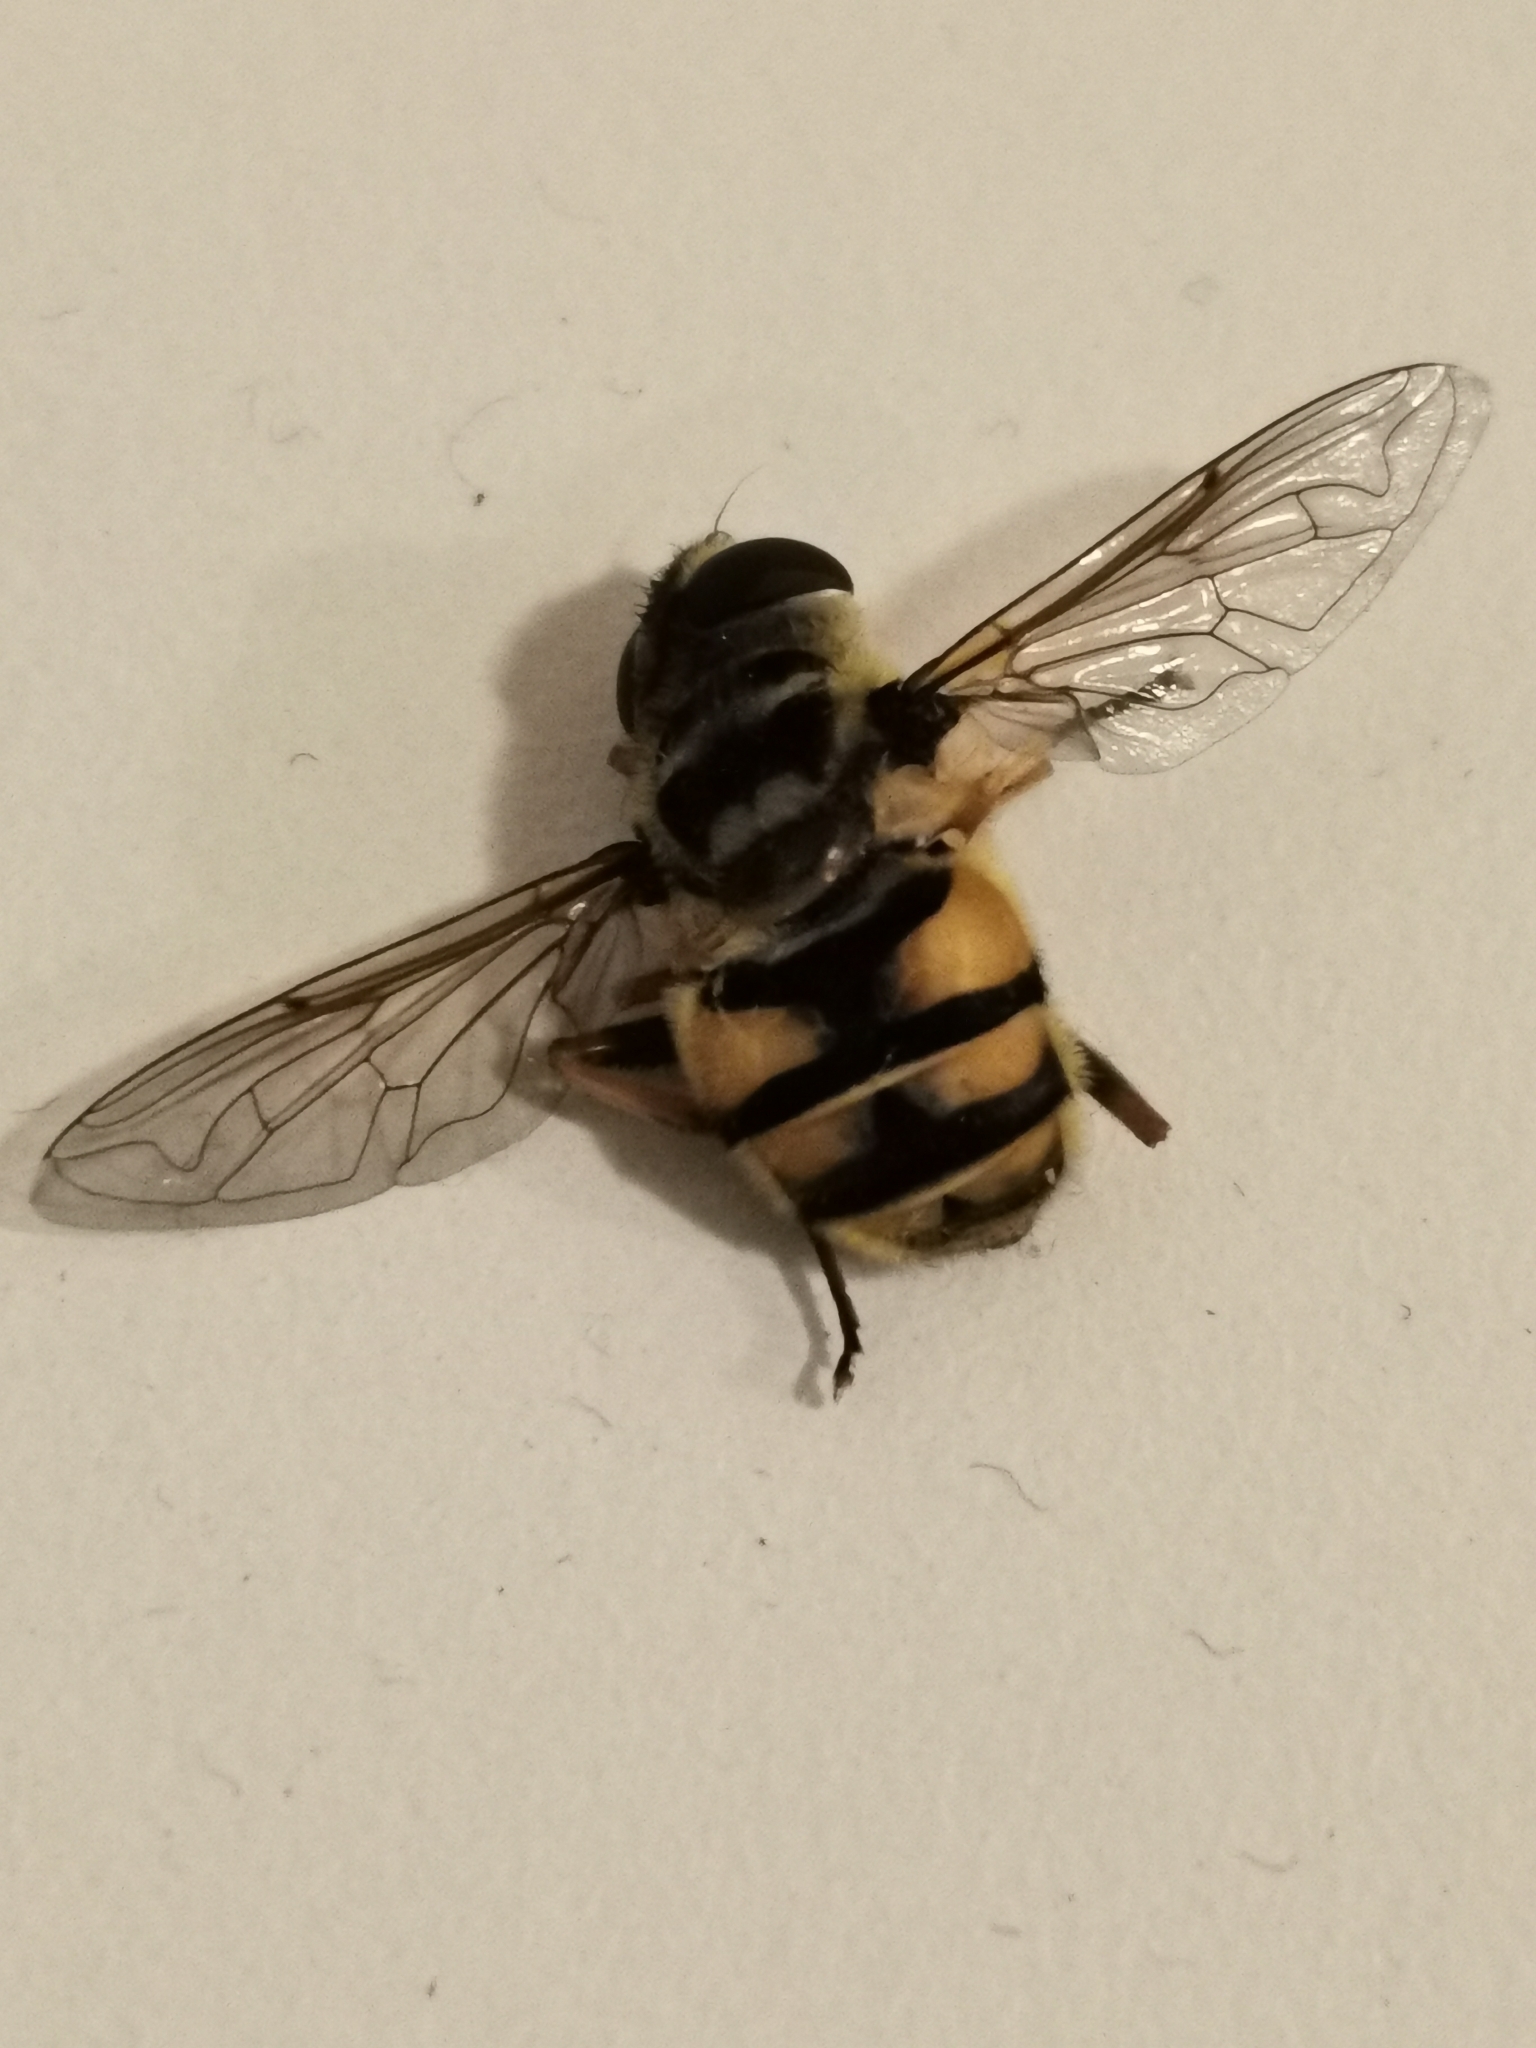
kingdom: Animalia
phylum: Arthropoda
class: Insecta
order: Diptera
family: Syrphidae
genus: Myathropa
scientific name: Myathropa florea
